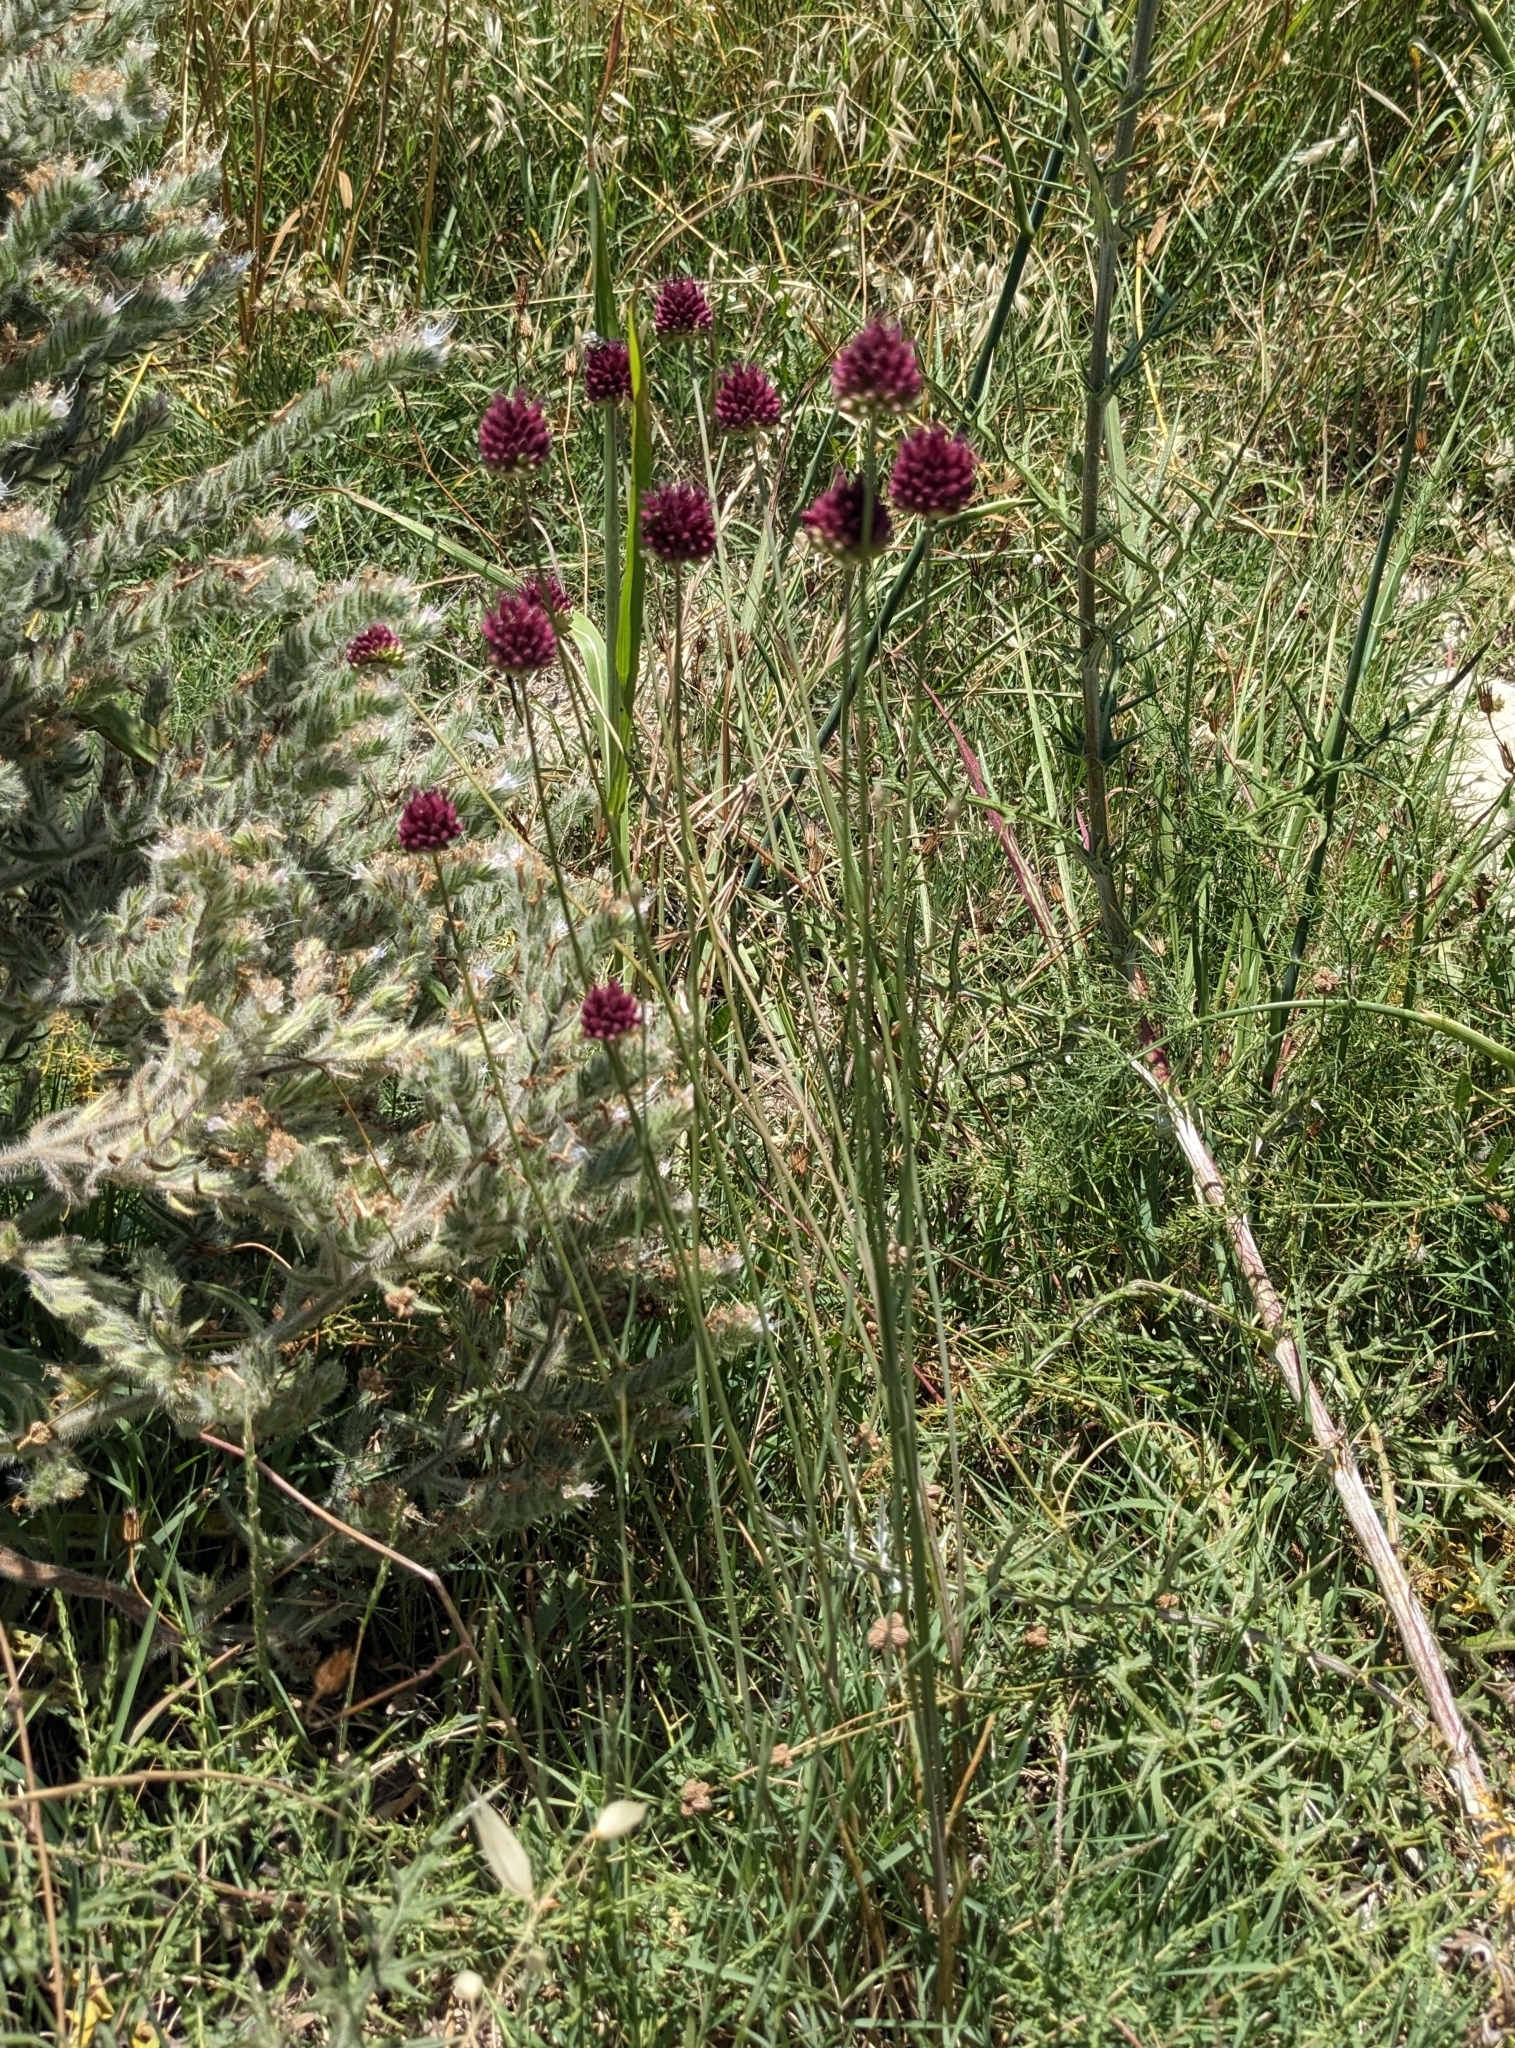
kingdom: Plantae
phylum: Tracheophyta
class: Liliopsida
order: Asparagales
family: Amaryllidaceae
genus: Allium
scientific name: Allium sphaerocephalon
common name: Round-headed leek
